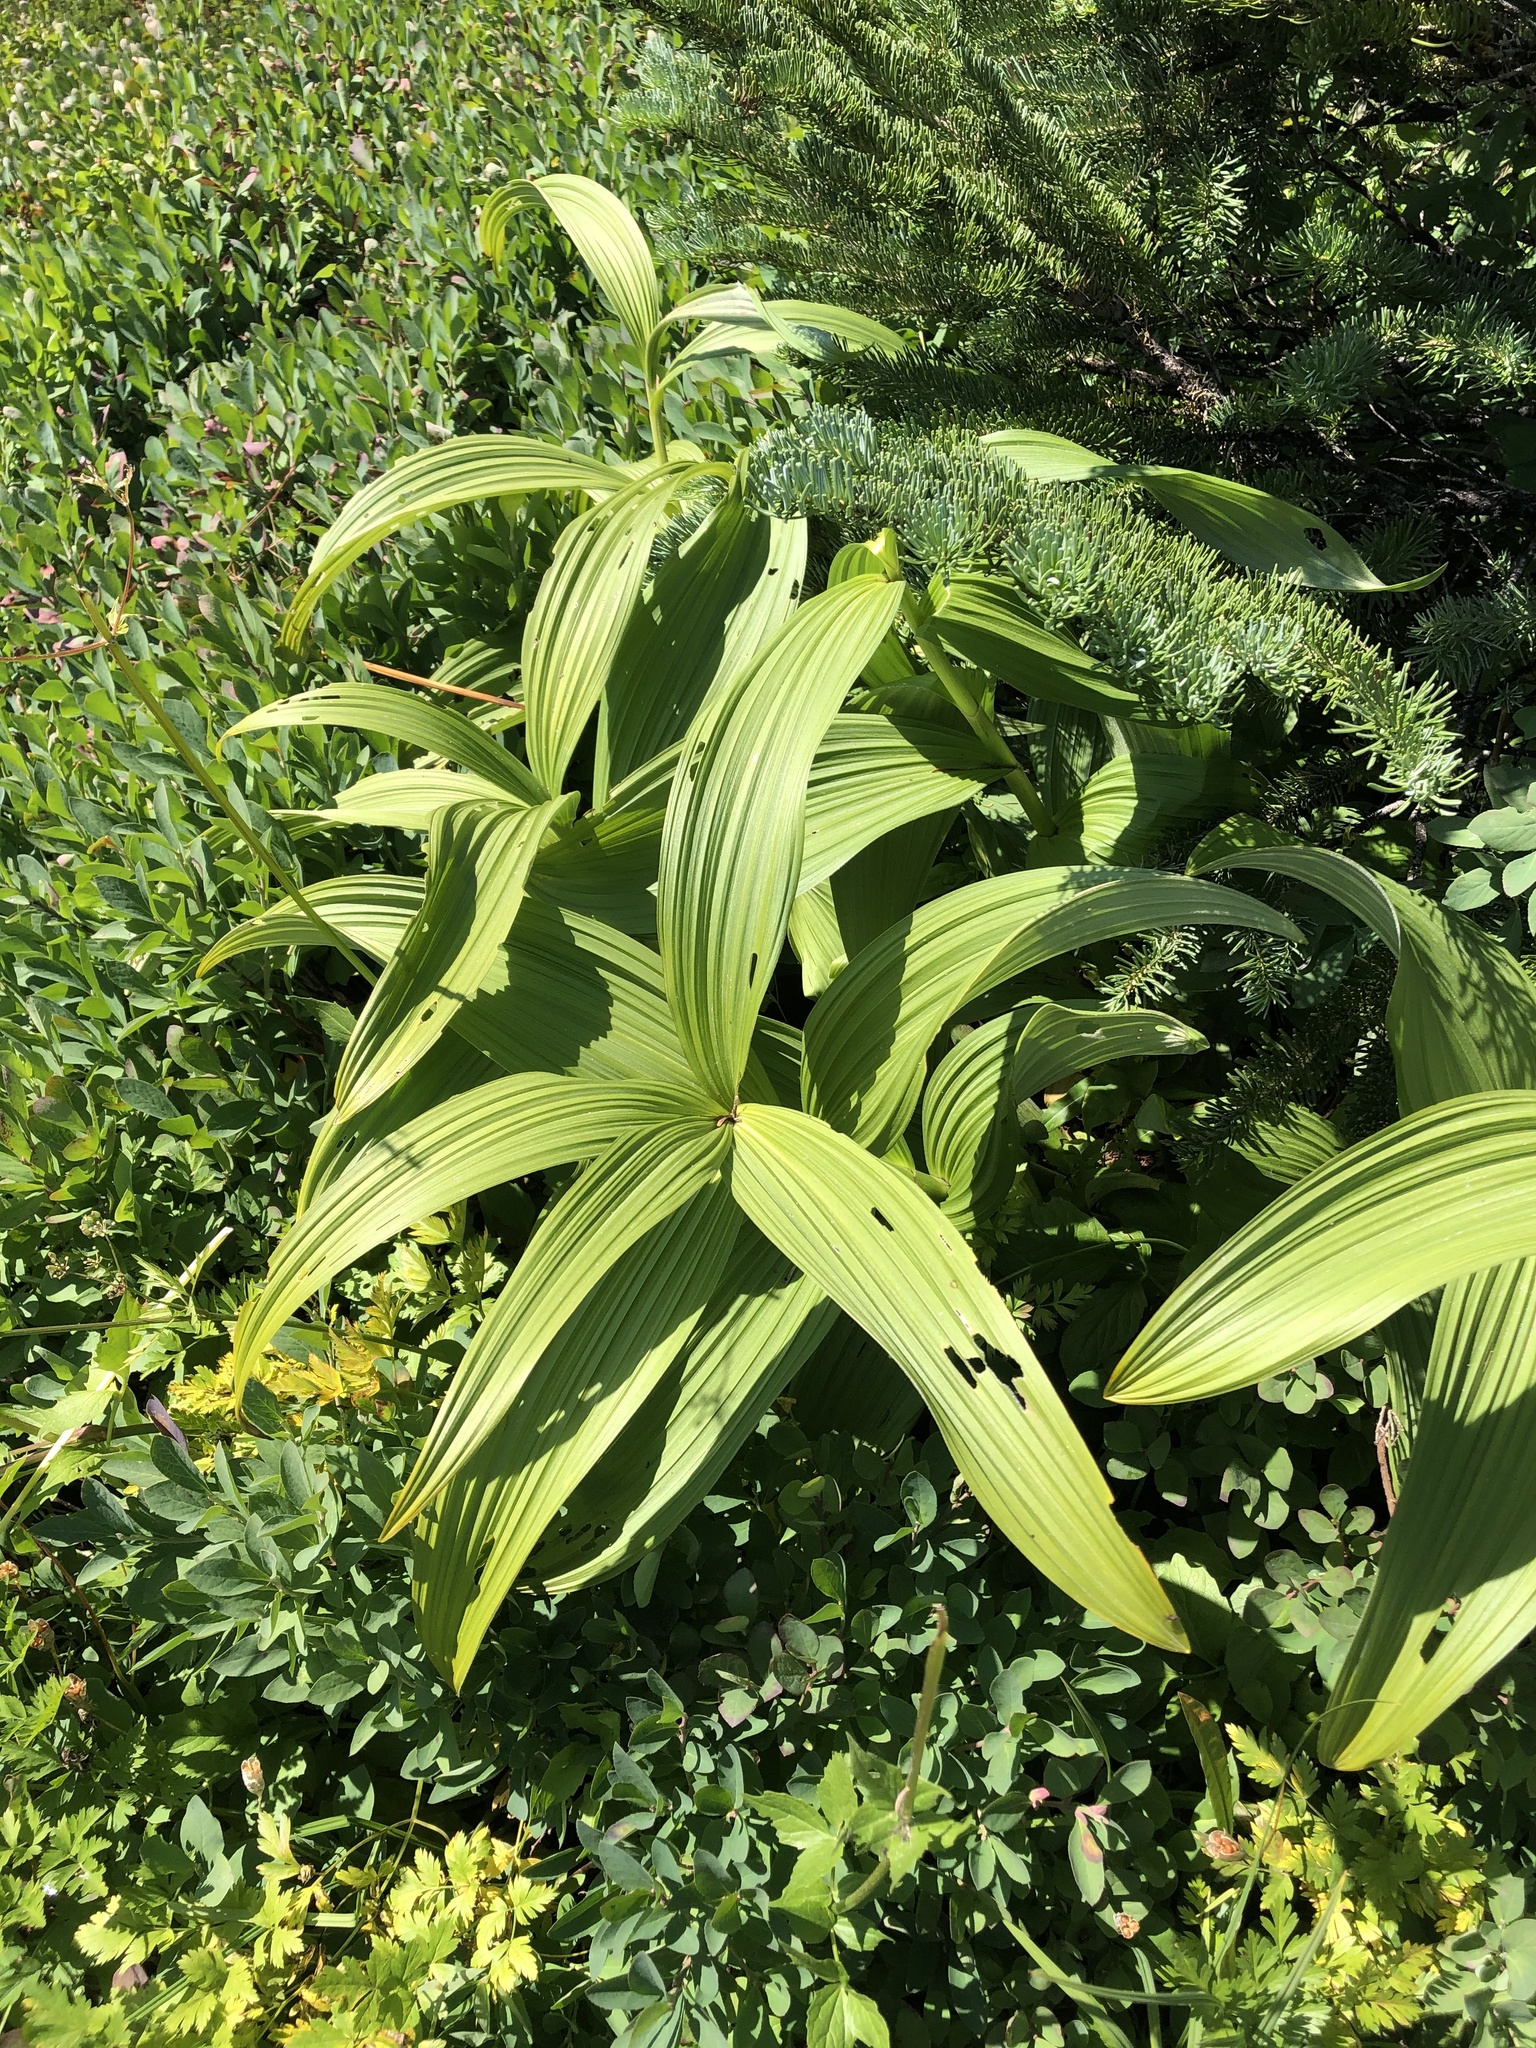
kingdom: Plantae
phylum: Tracheophyta
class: Liliopsida
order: Liliales
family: Melanthiaceae
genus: Veratrum
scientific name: Veratrum viride
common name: American false hellebore
